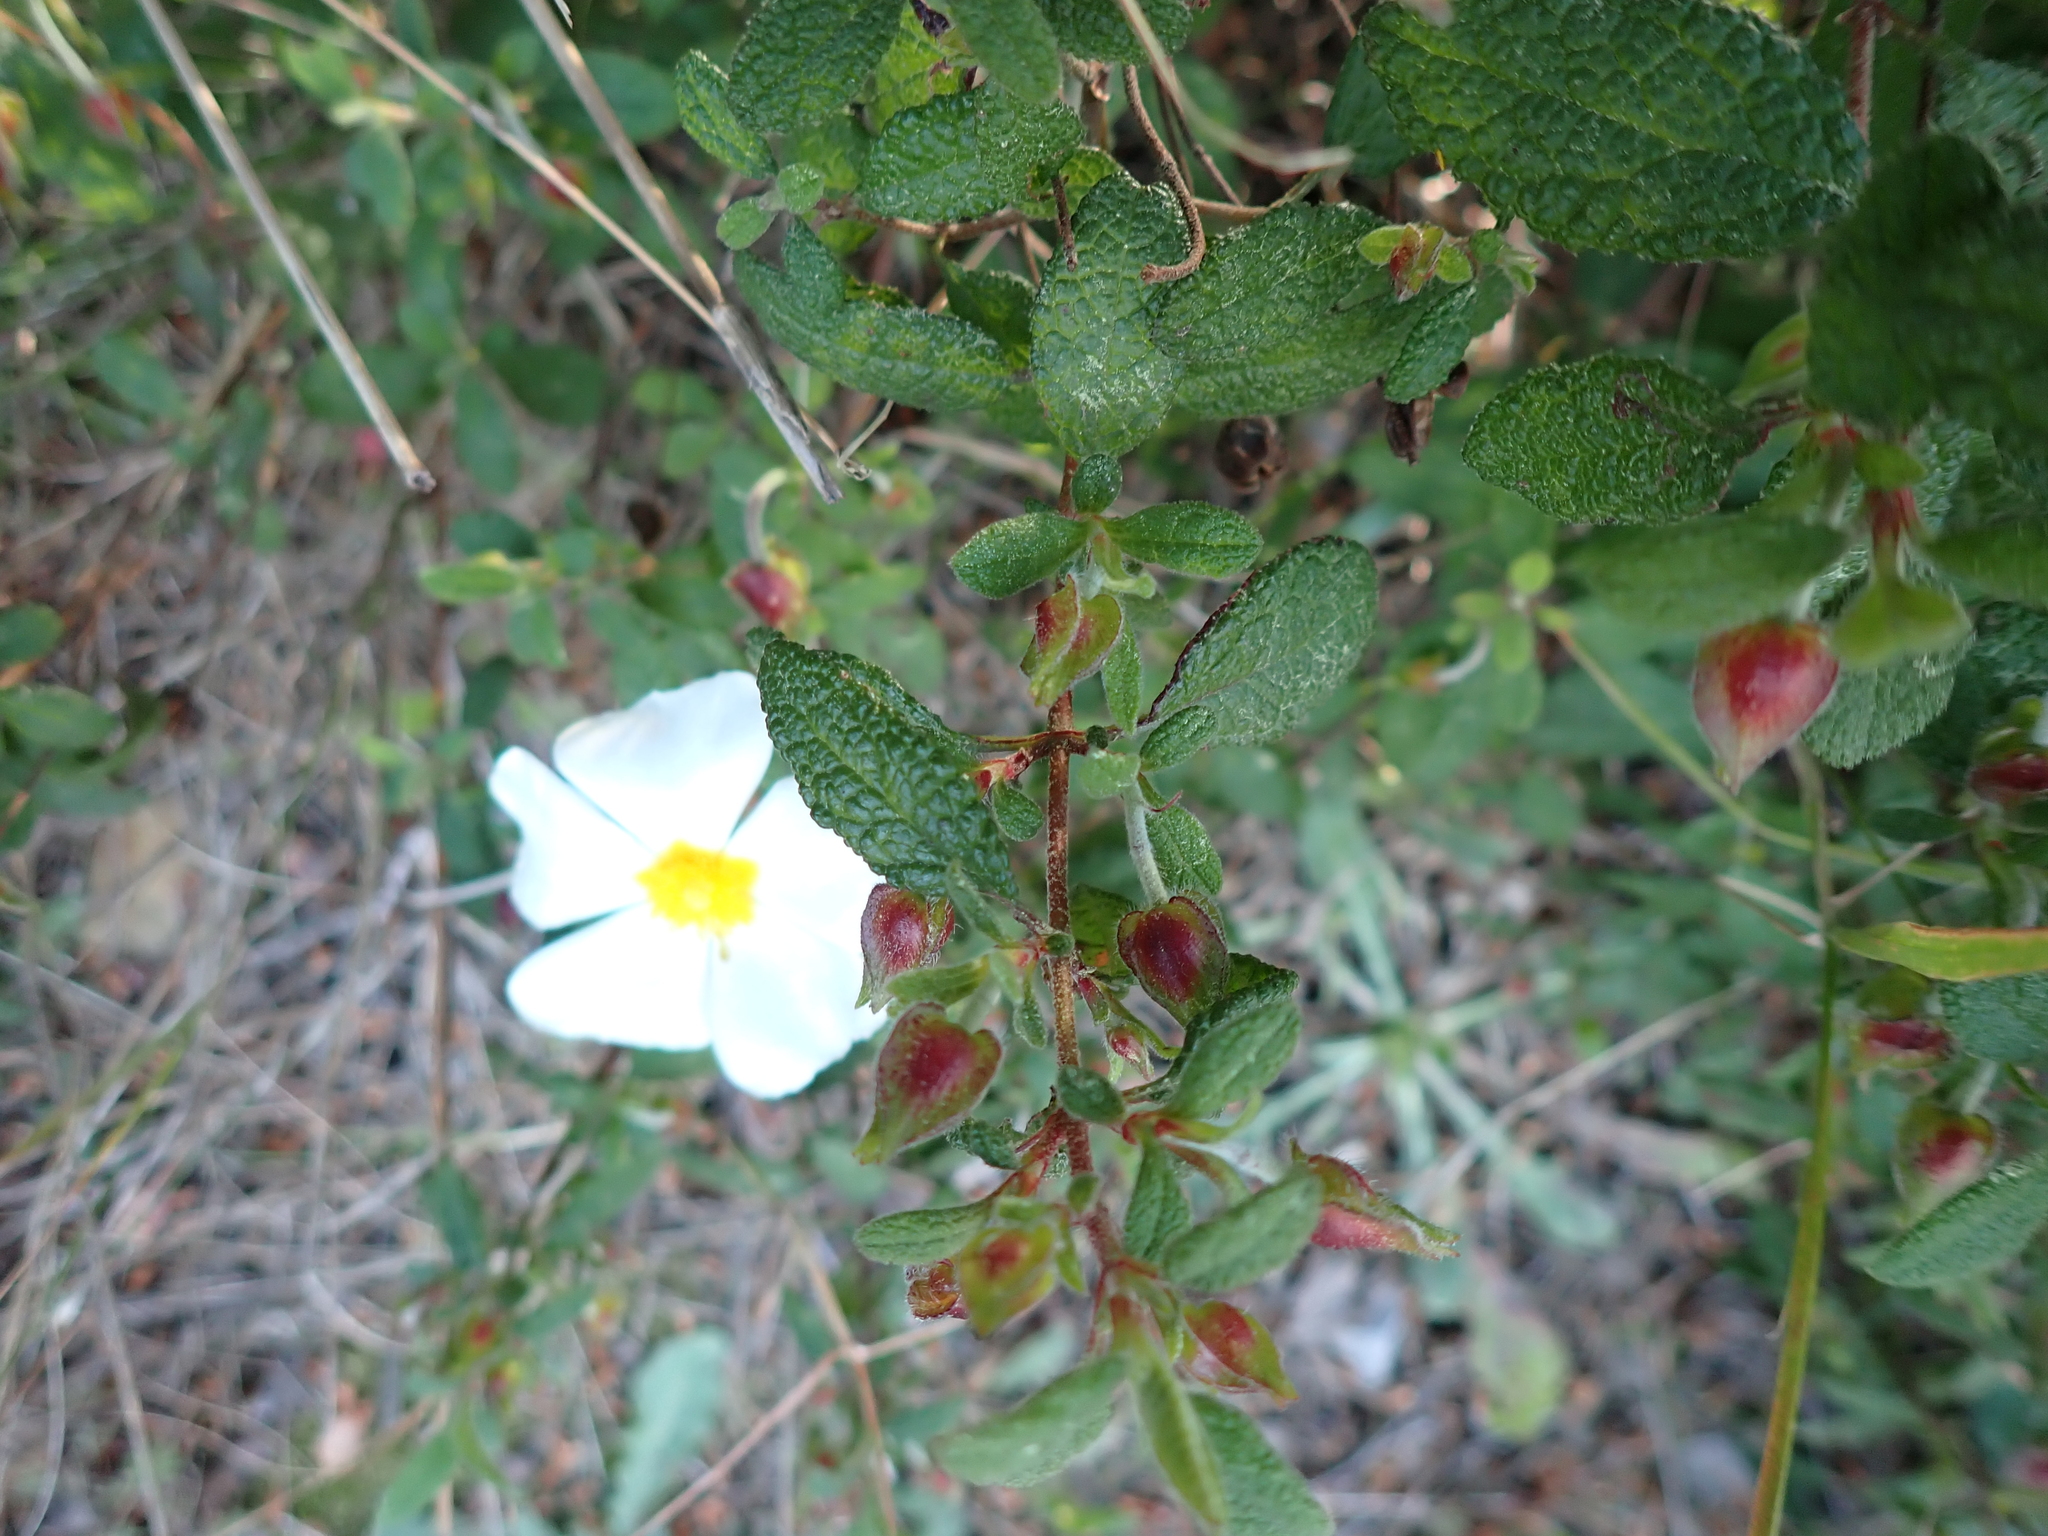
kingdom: Plantae
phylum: Tracheophyta
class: Magnoliopsida
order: Malvales
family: Cistaceae
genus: Cistus
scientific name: Cistus salviifolius
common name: Salvia cistus
